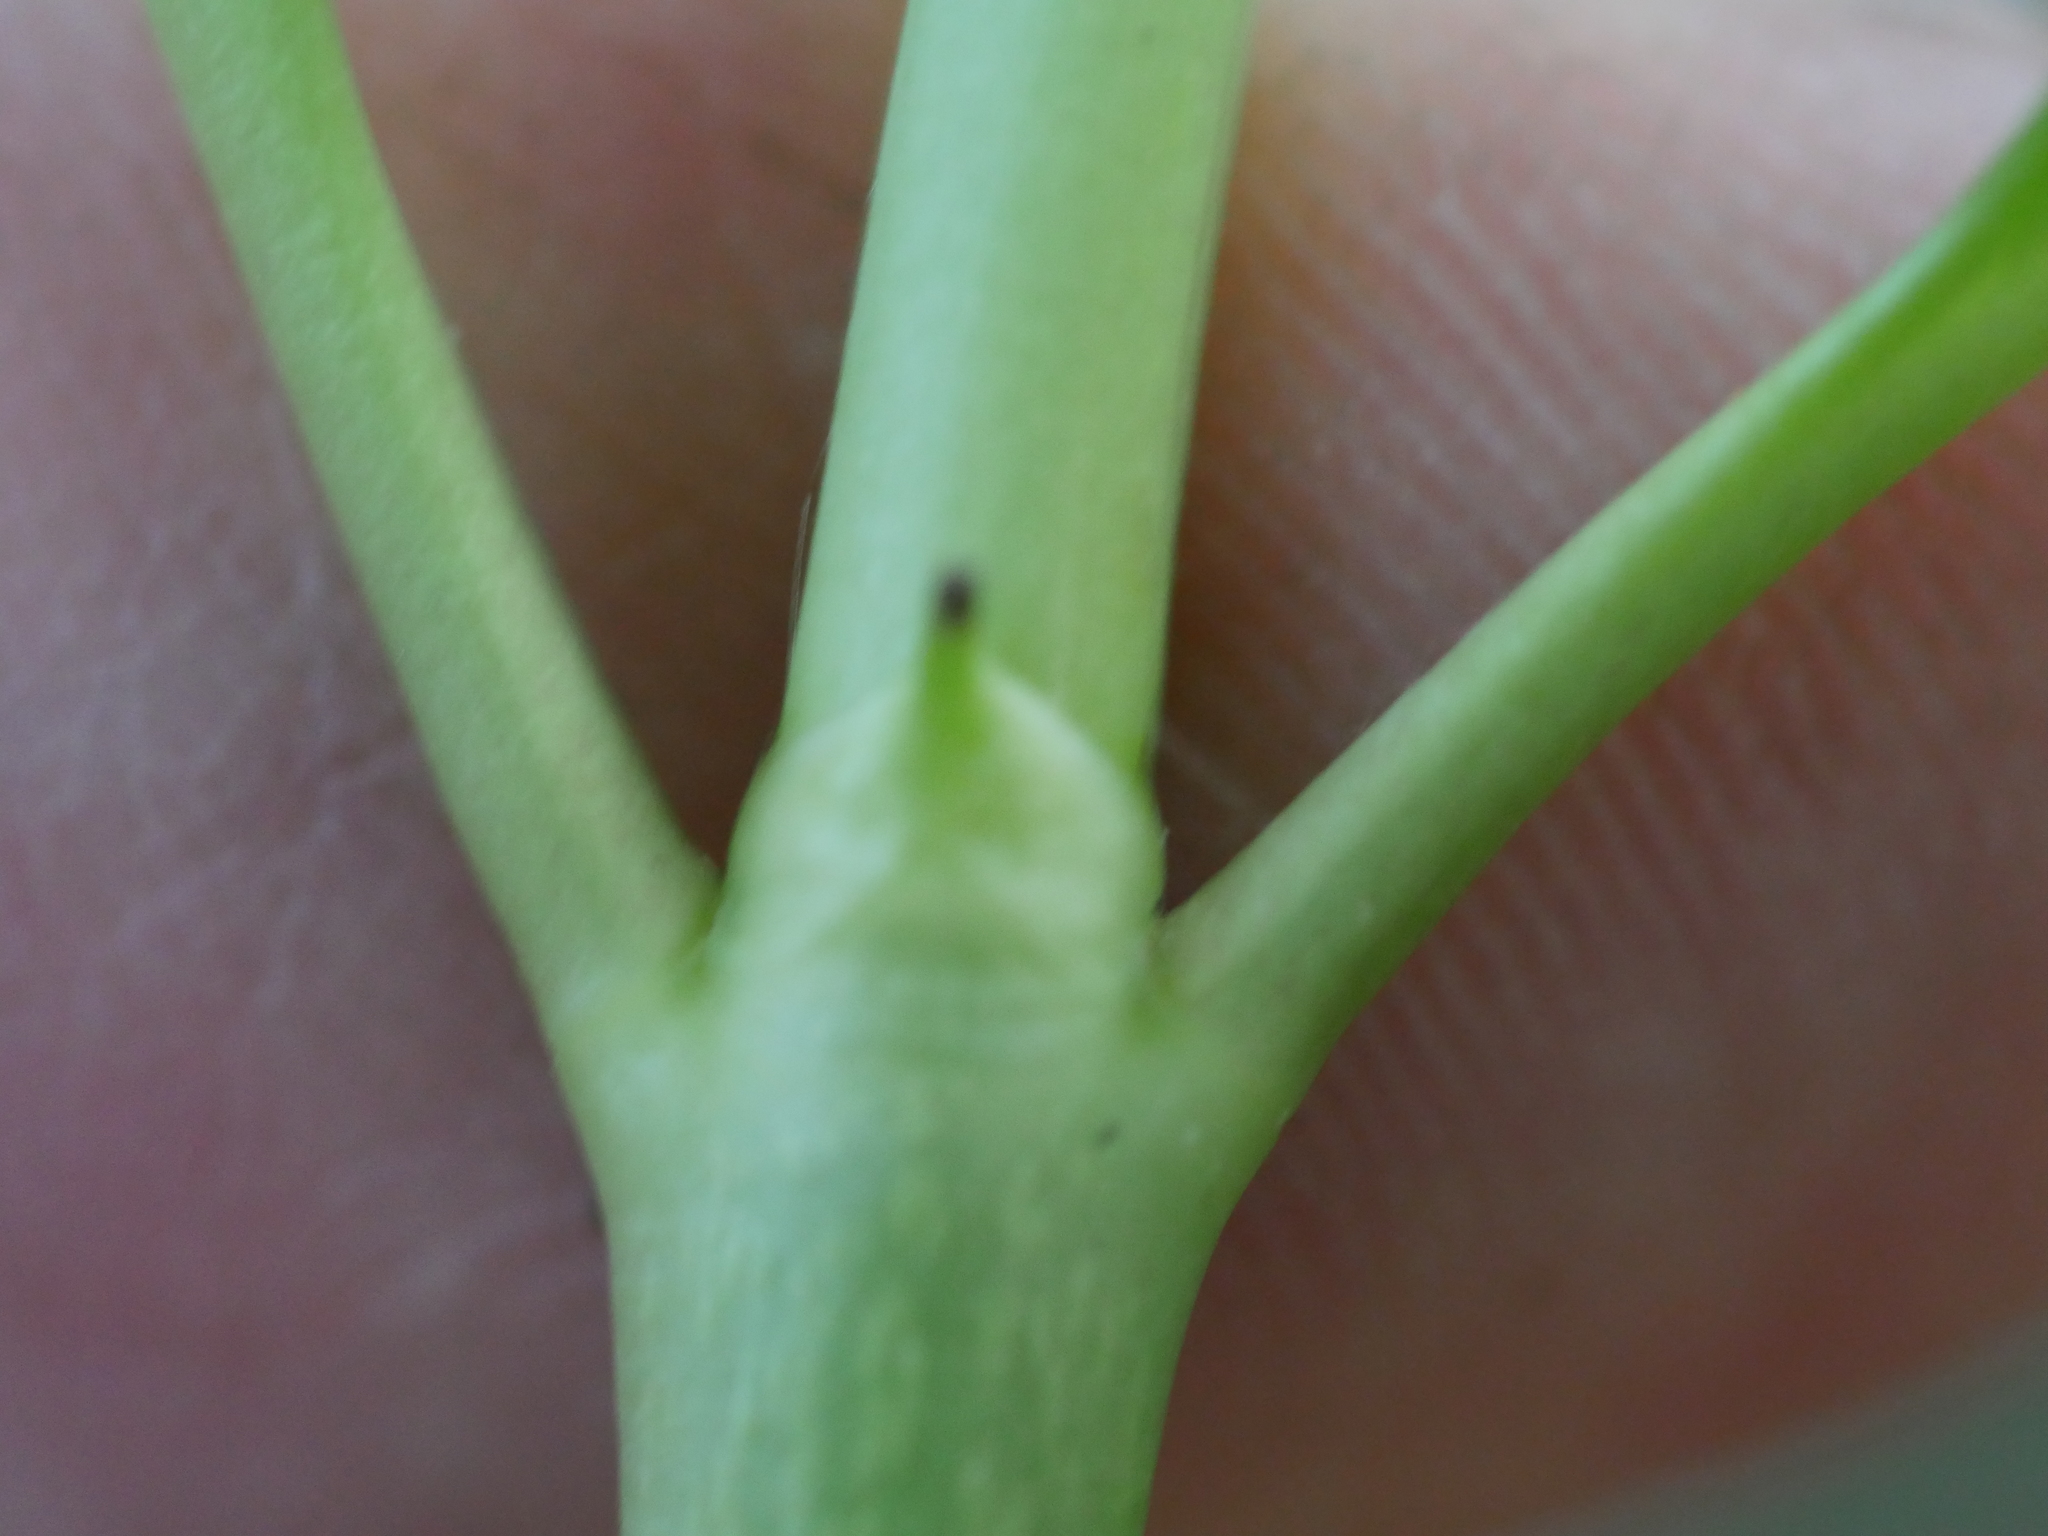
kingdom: Plantae
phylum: Tracheophyta
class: Magnoliopsida
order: Gentianales
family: Rubiaceae
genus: Coprosma
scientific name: Coprosma macrocarpa
